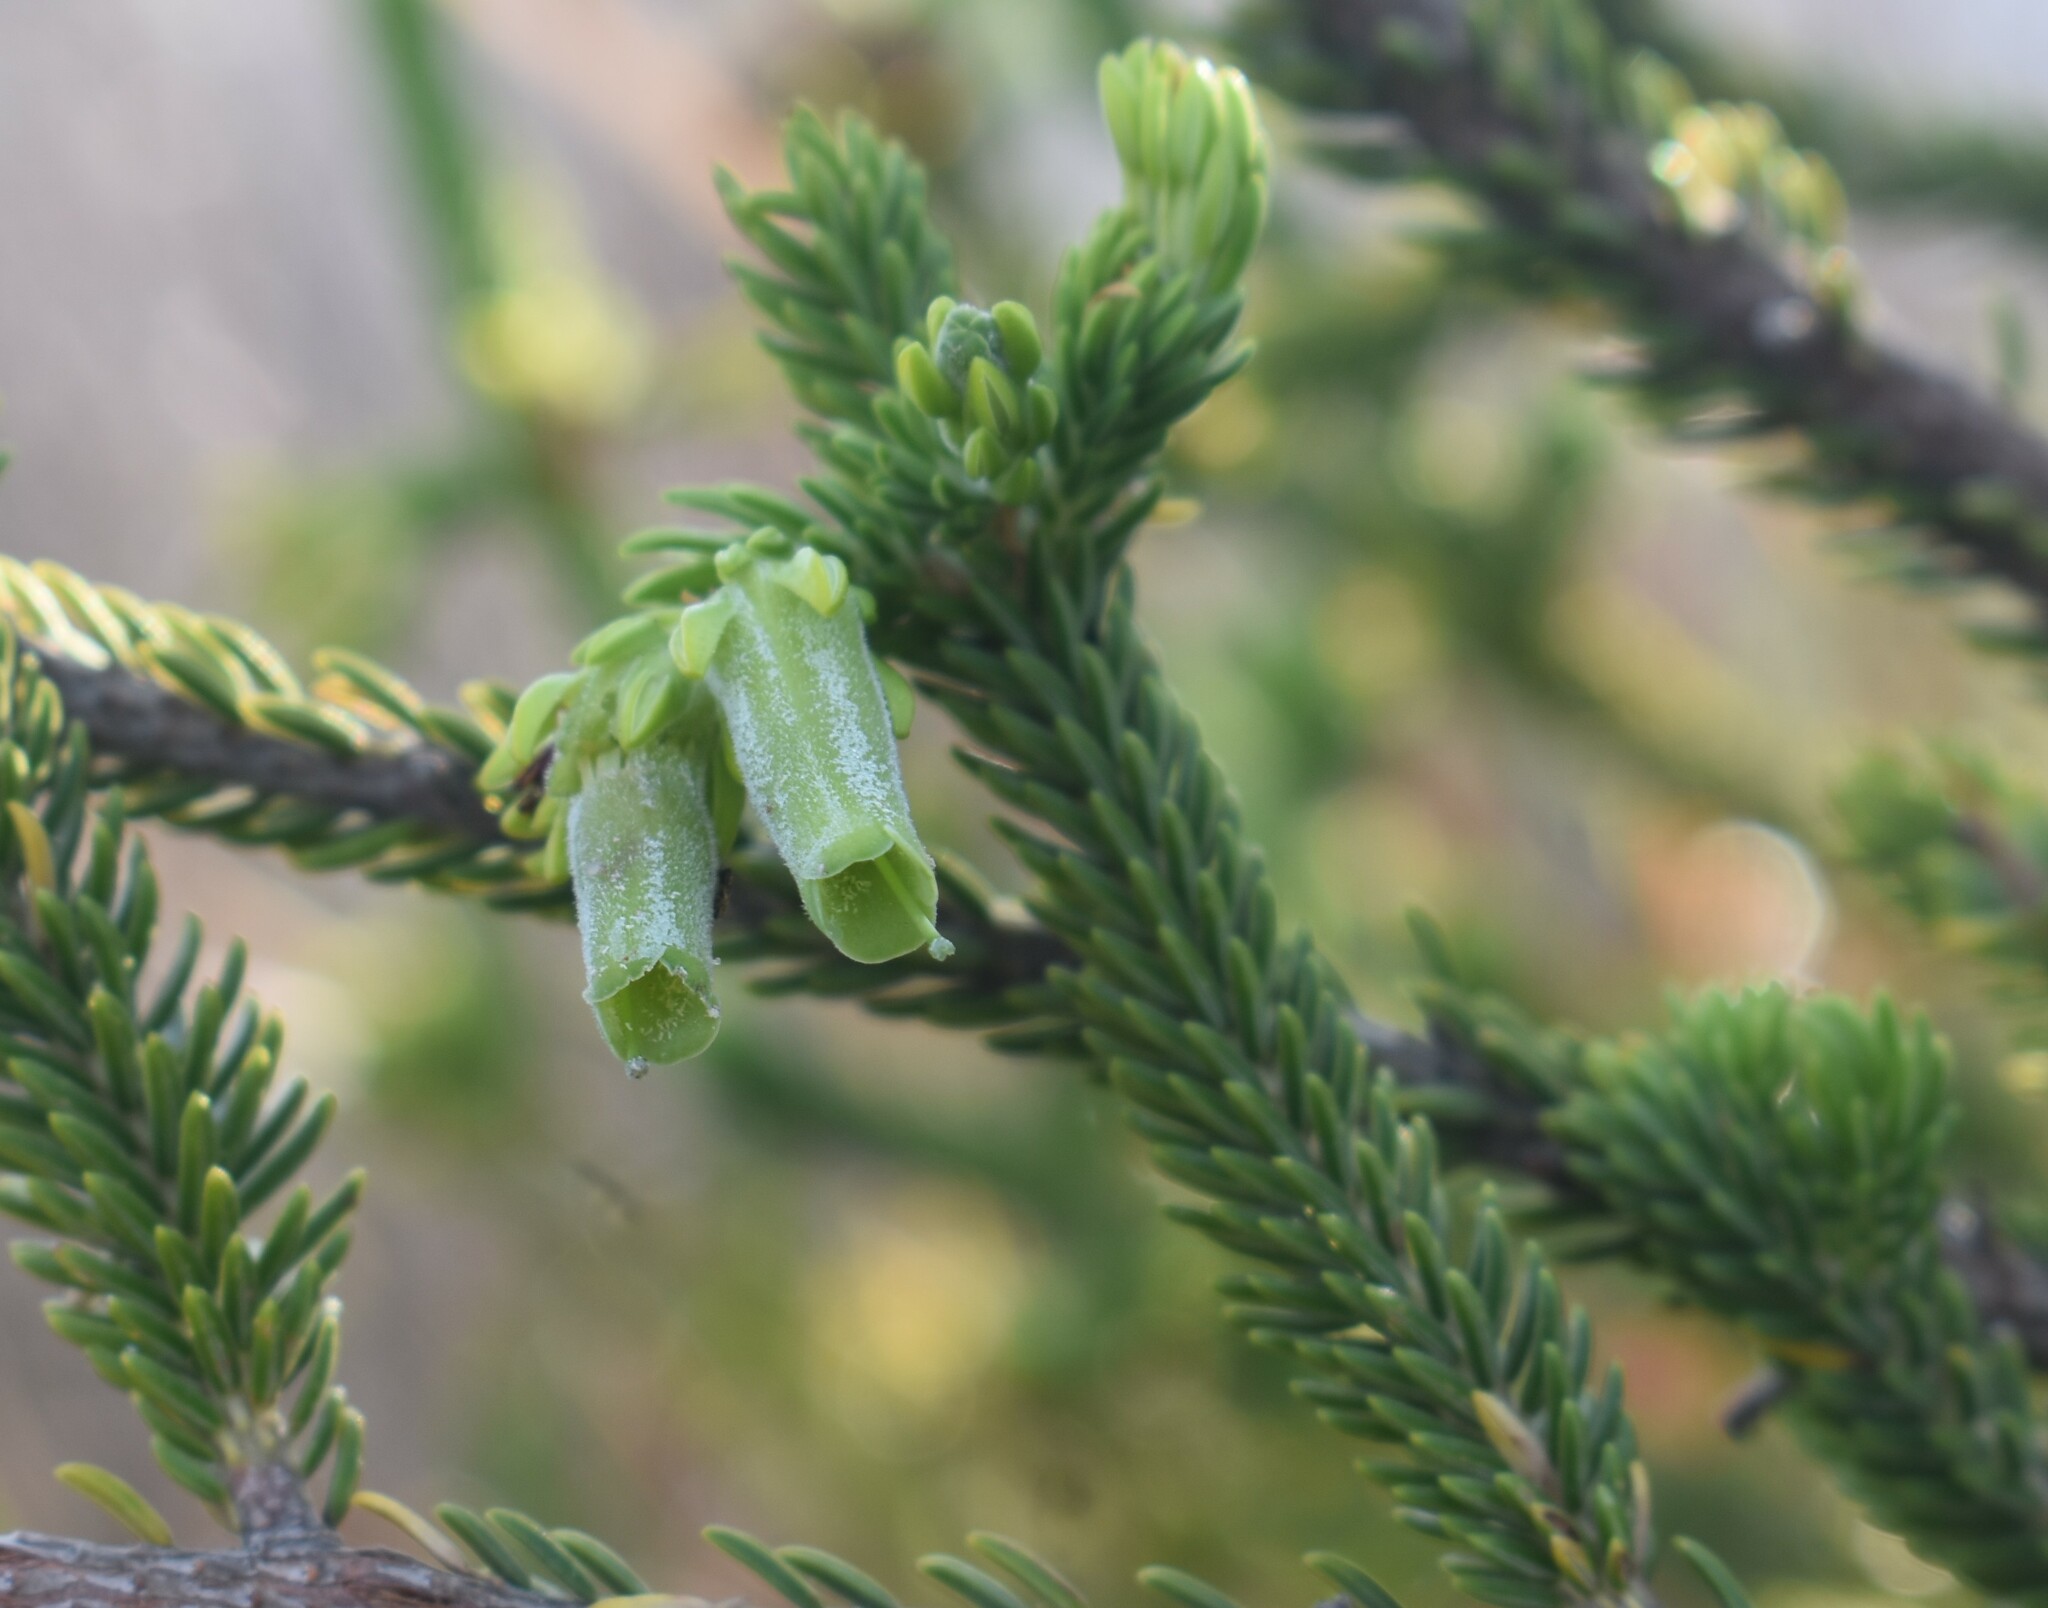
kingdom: Plantae
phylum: Tracheophyta
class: Magnoliopsida
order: Ericales
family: Ericaceae
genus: Erica
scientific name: Erica brachialis
